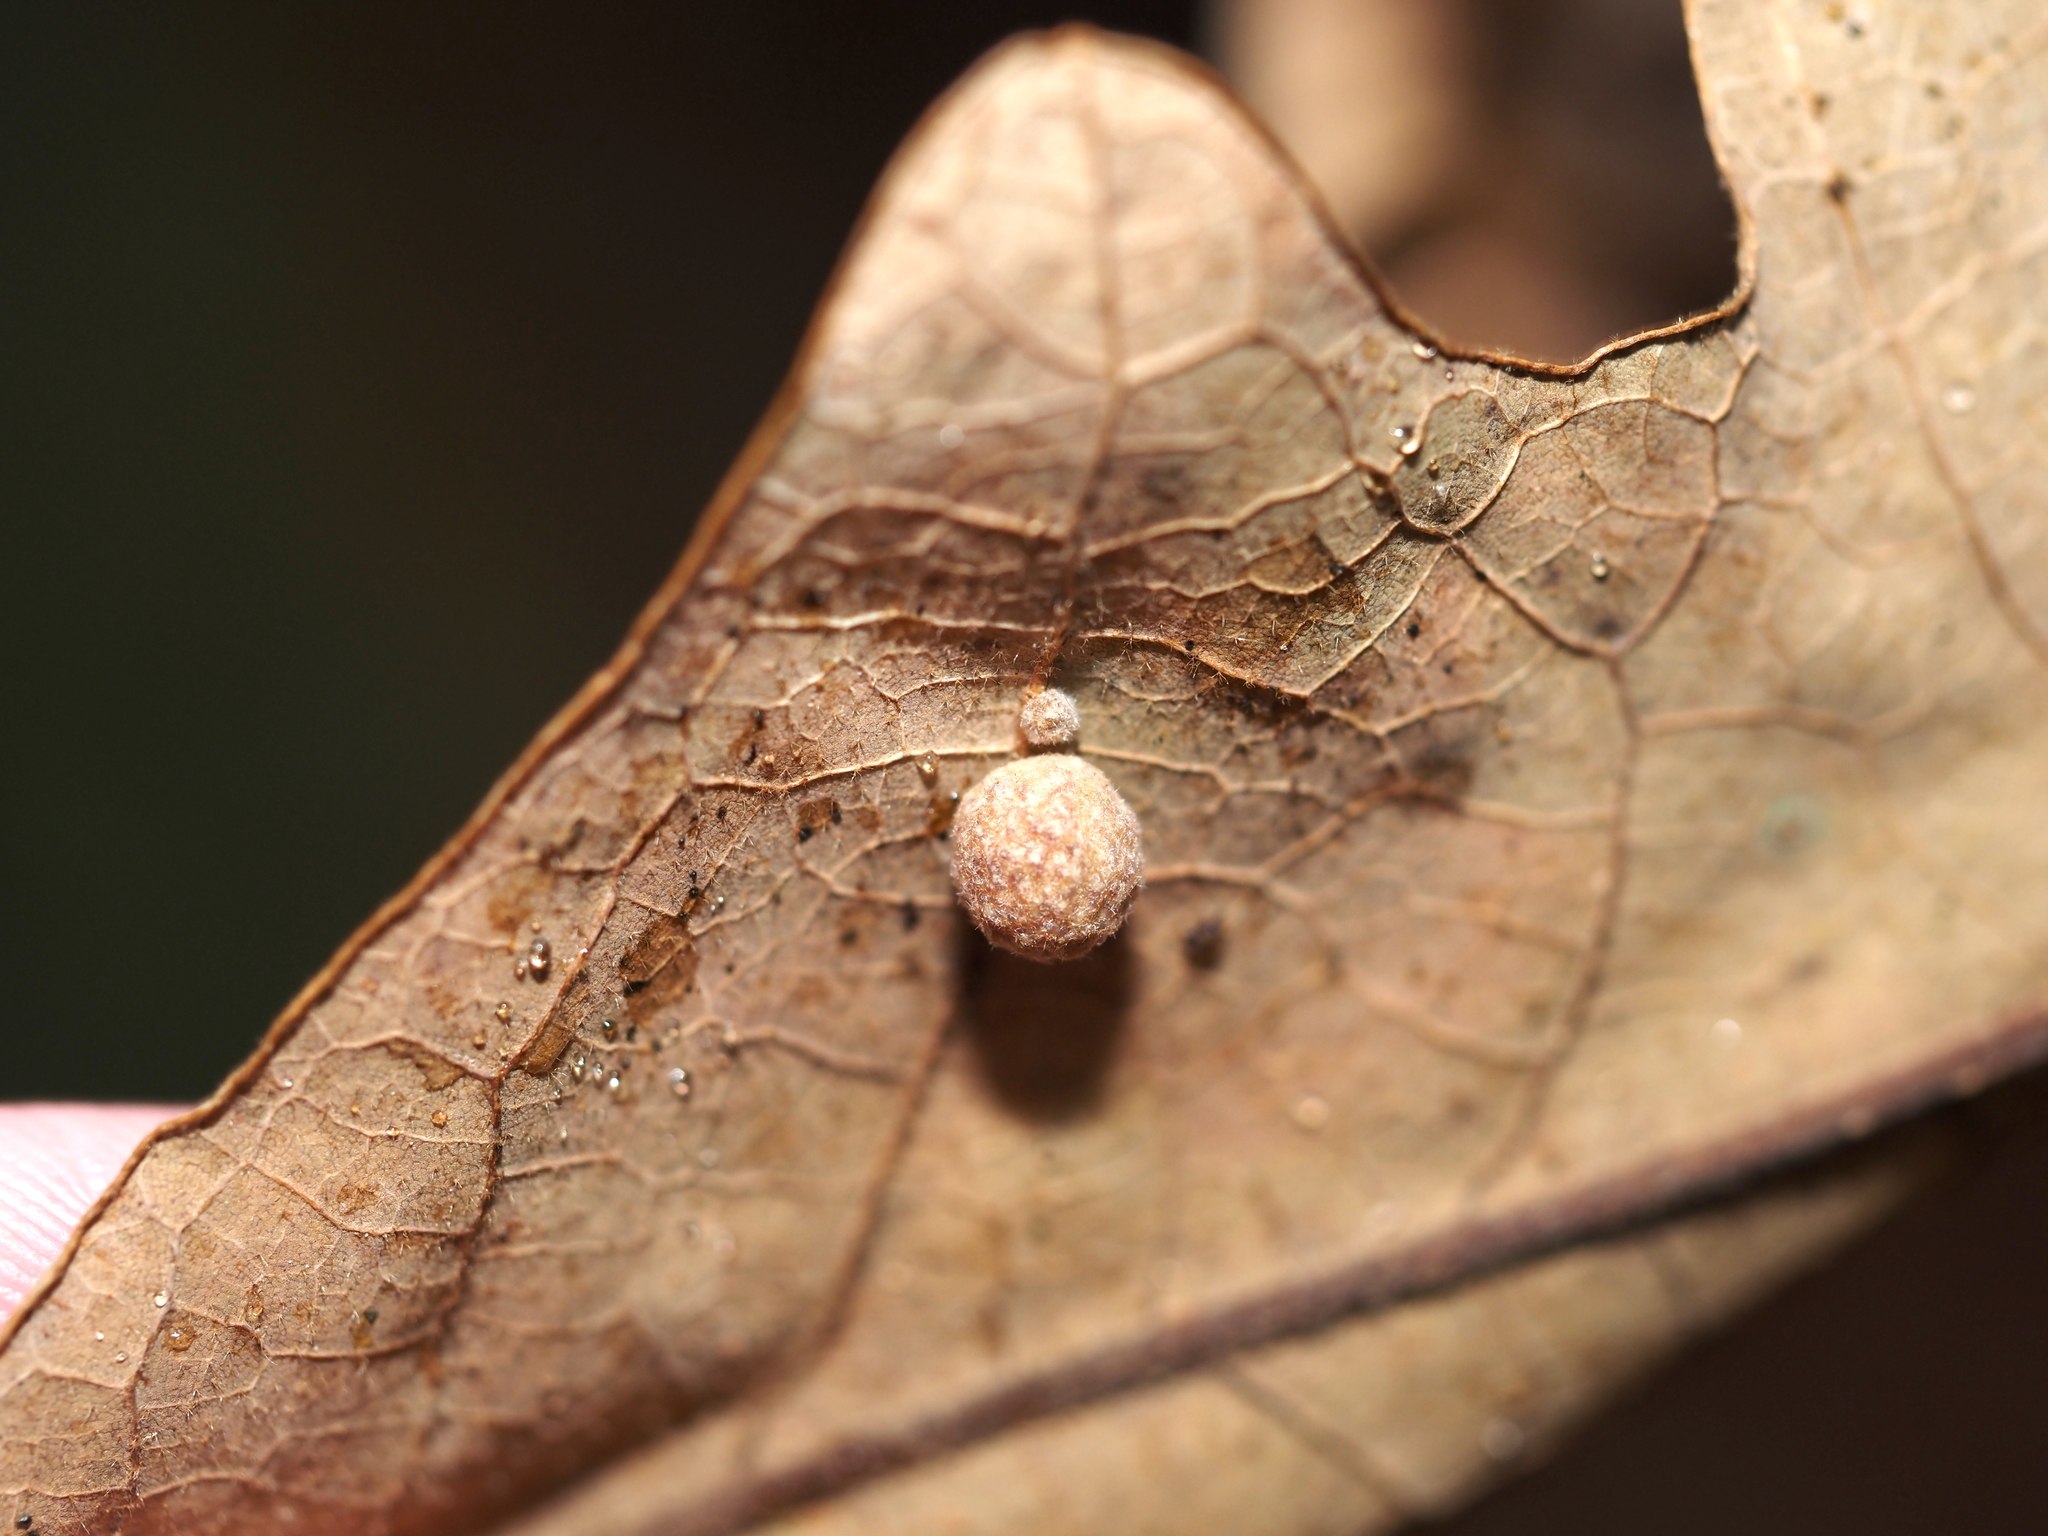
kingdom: Animalia
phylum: Arthropoda
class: Insecta
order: Hymenoptera
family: Cynipidae
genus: Atrusca
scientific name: Atrusca
